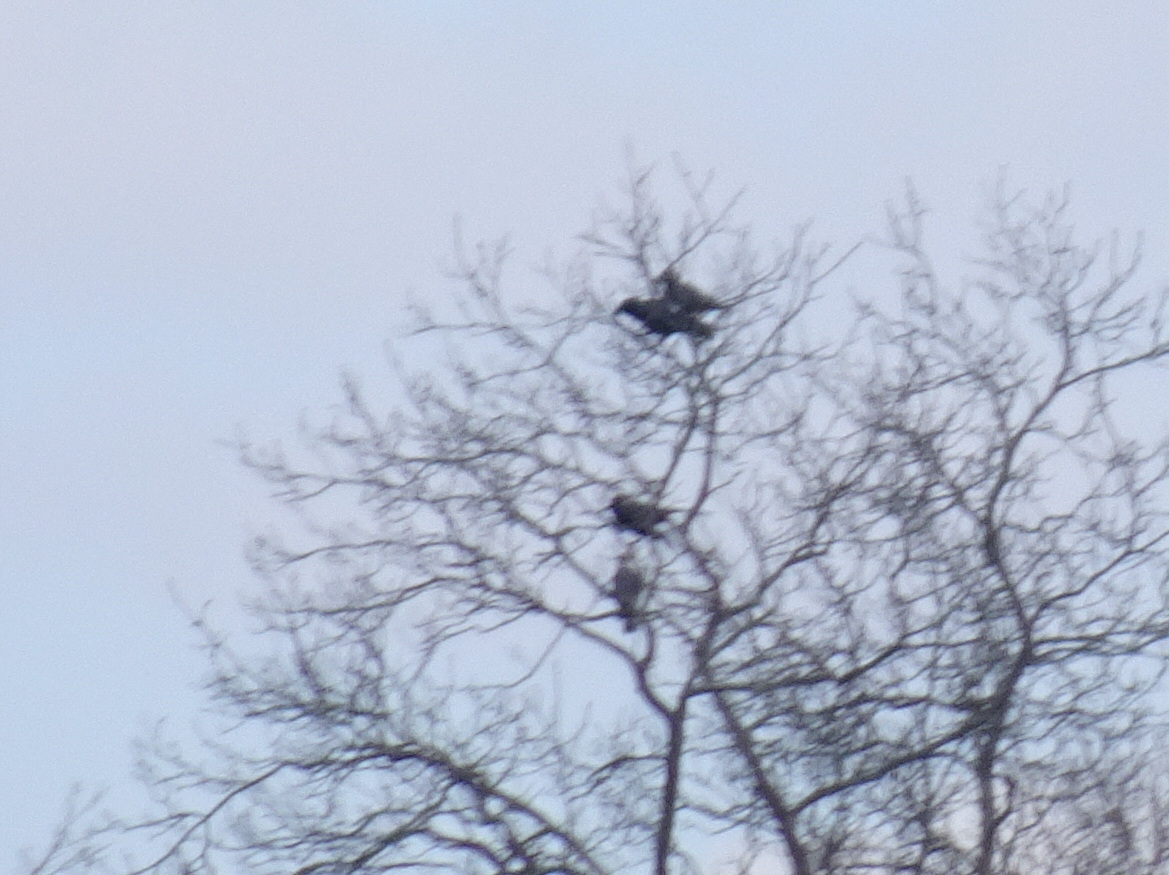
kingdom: Animalia
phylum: Chordata
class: Aves
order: Accipitriformes
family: Accipitridae
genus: Accipiter
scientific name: Accipiter
